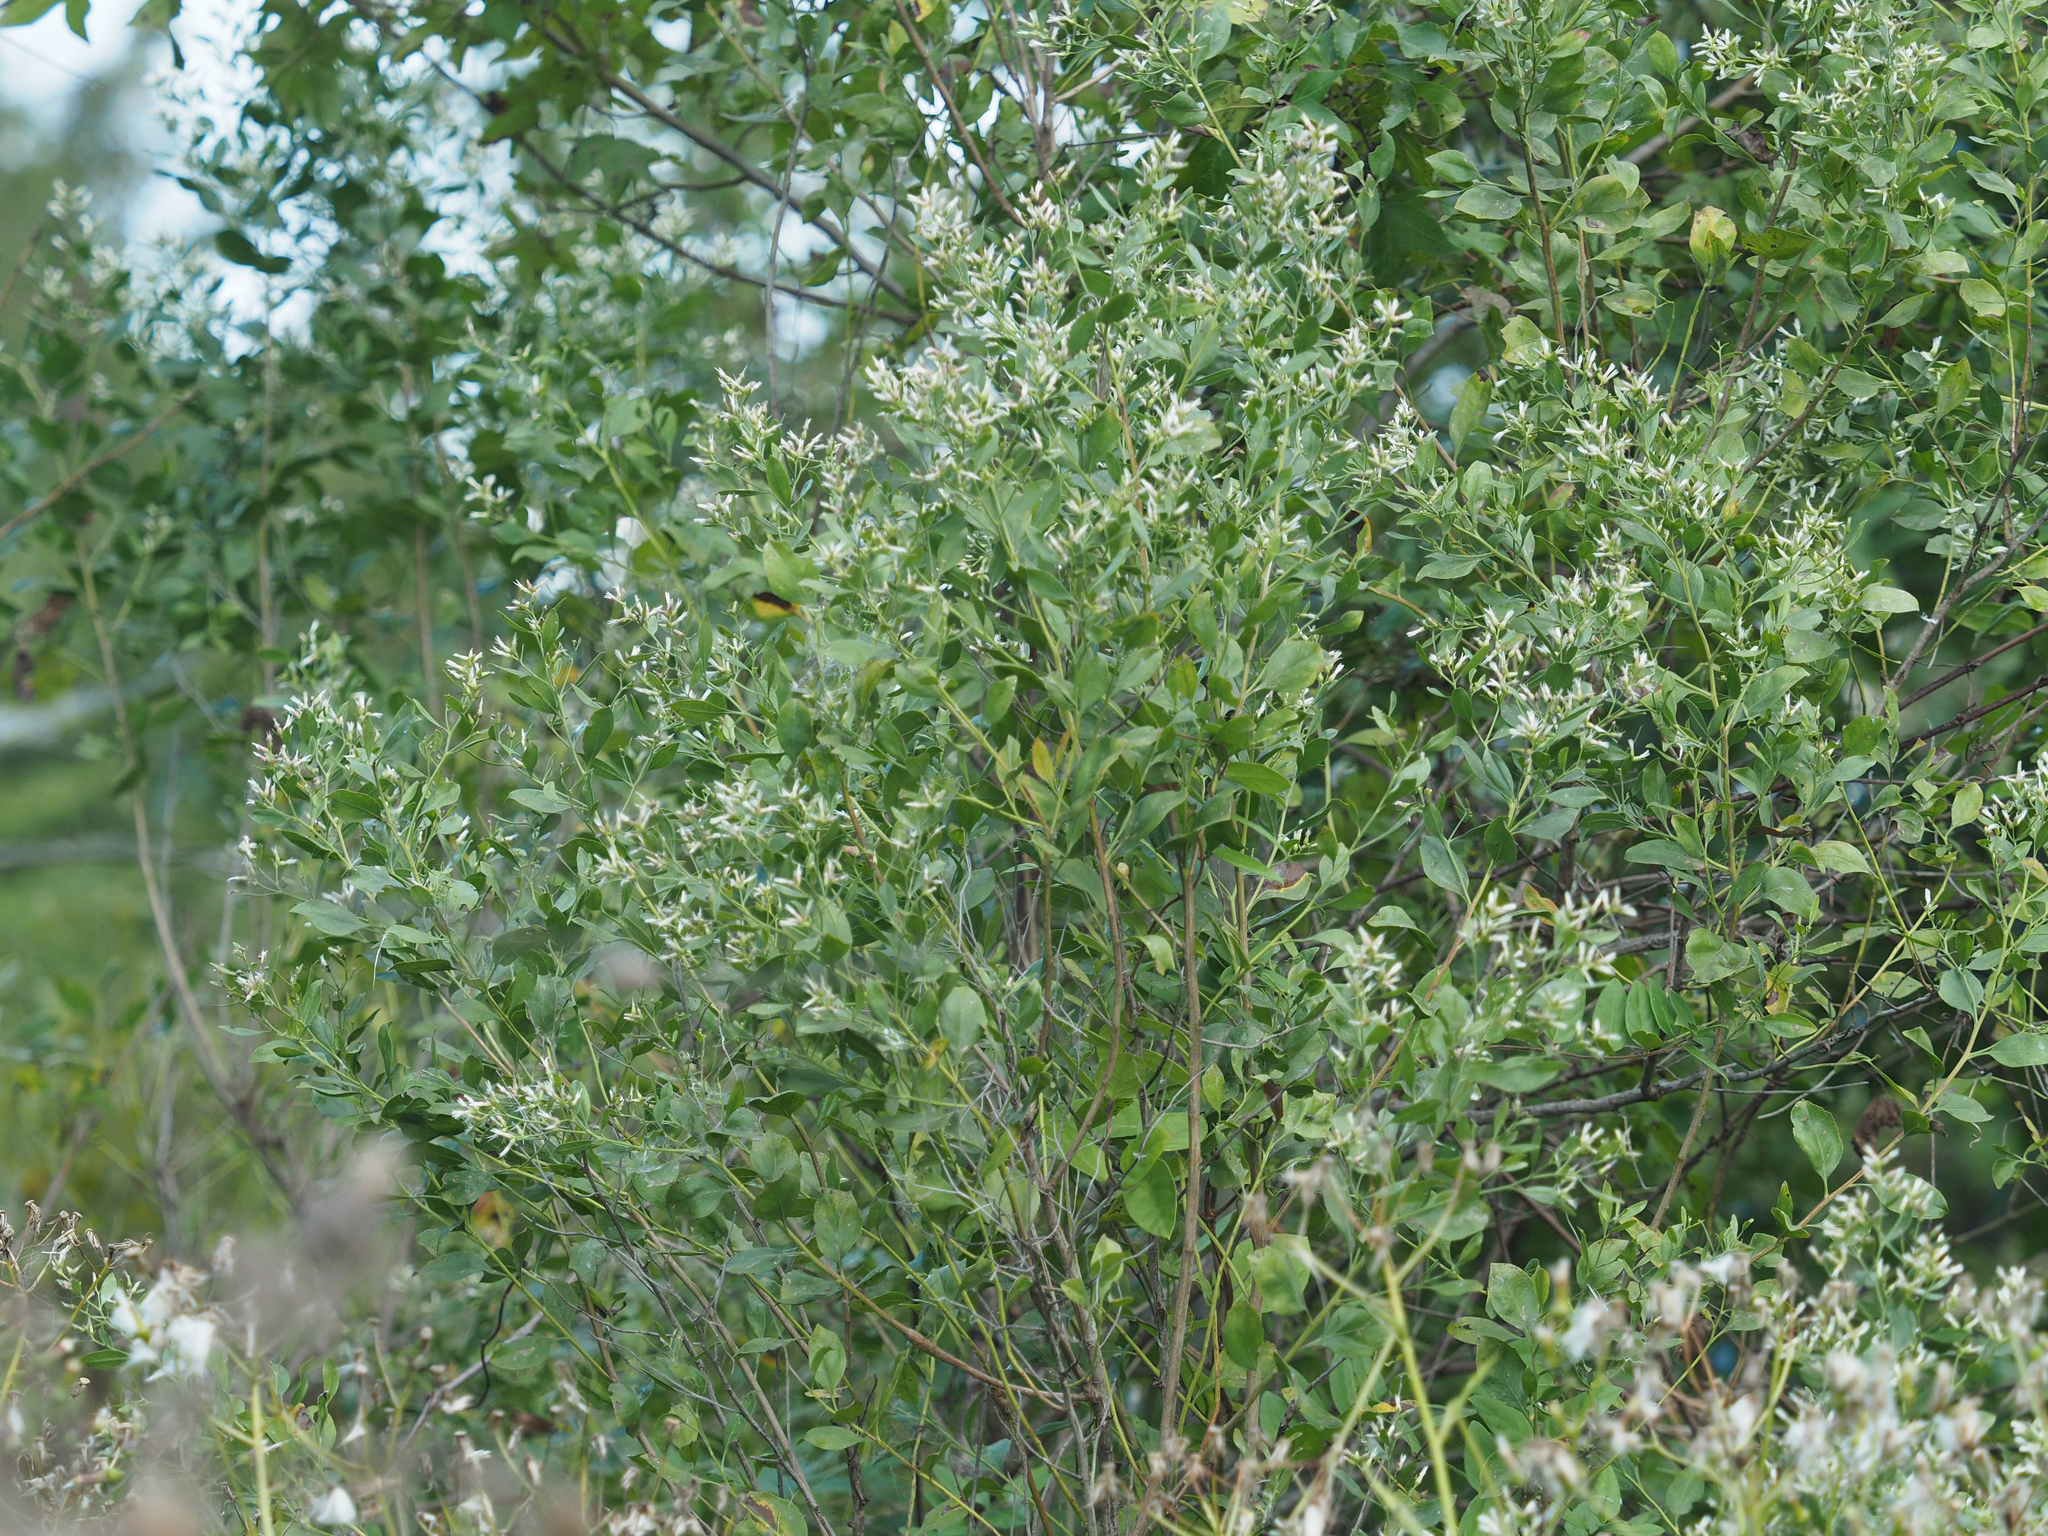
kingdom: Plantae
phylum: Tracheophyta
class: Magnoliopsida
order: Asterales
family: Asteraceae
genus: Baccharis
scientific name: Baccharis halimifolia
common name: Eastern baccharis
